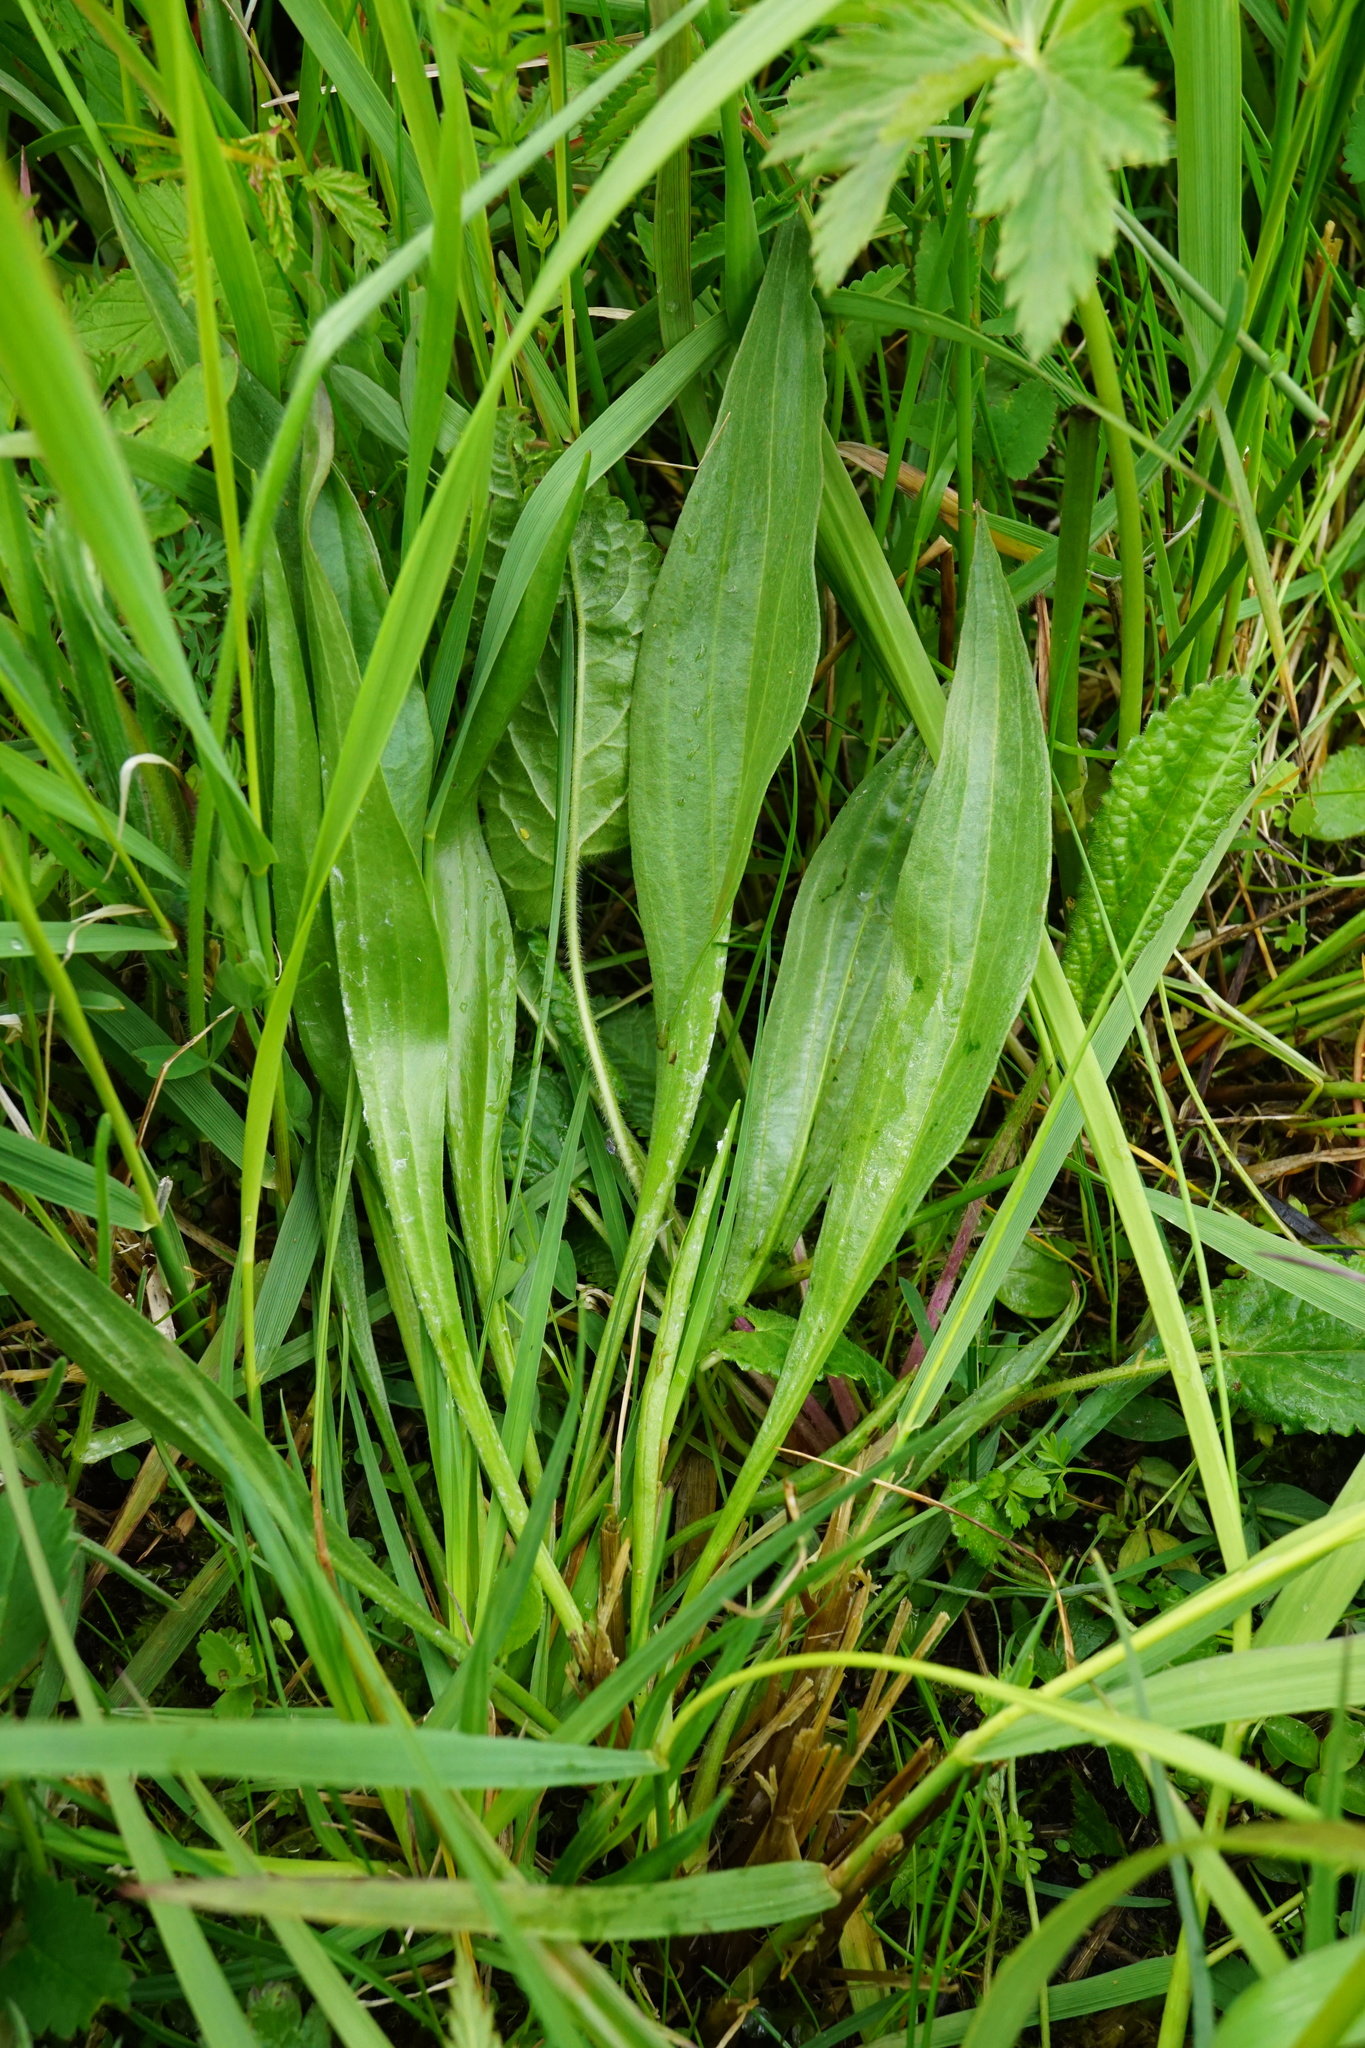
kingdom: Plantae
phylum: Tracheophyta
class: Magnoliopsida
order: Asterales
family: Asteraceae
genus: Scorzonera
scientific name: Scorzonera humilis
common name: Viper's-grass
